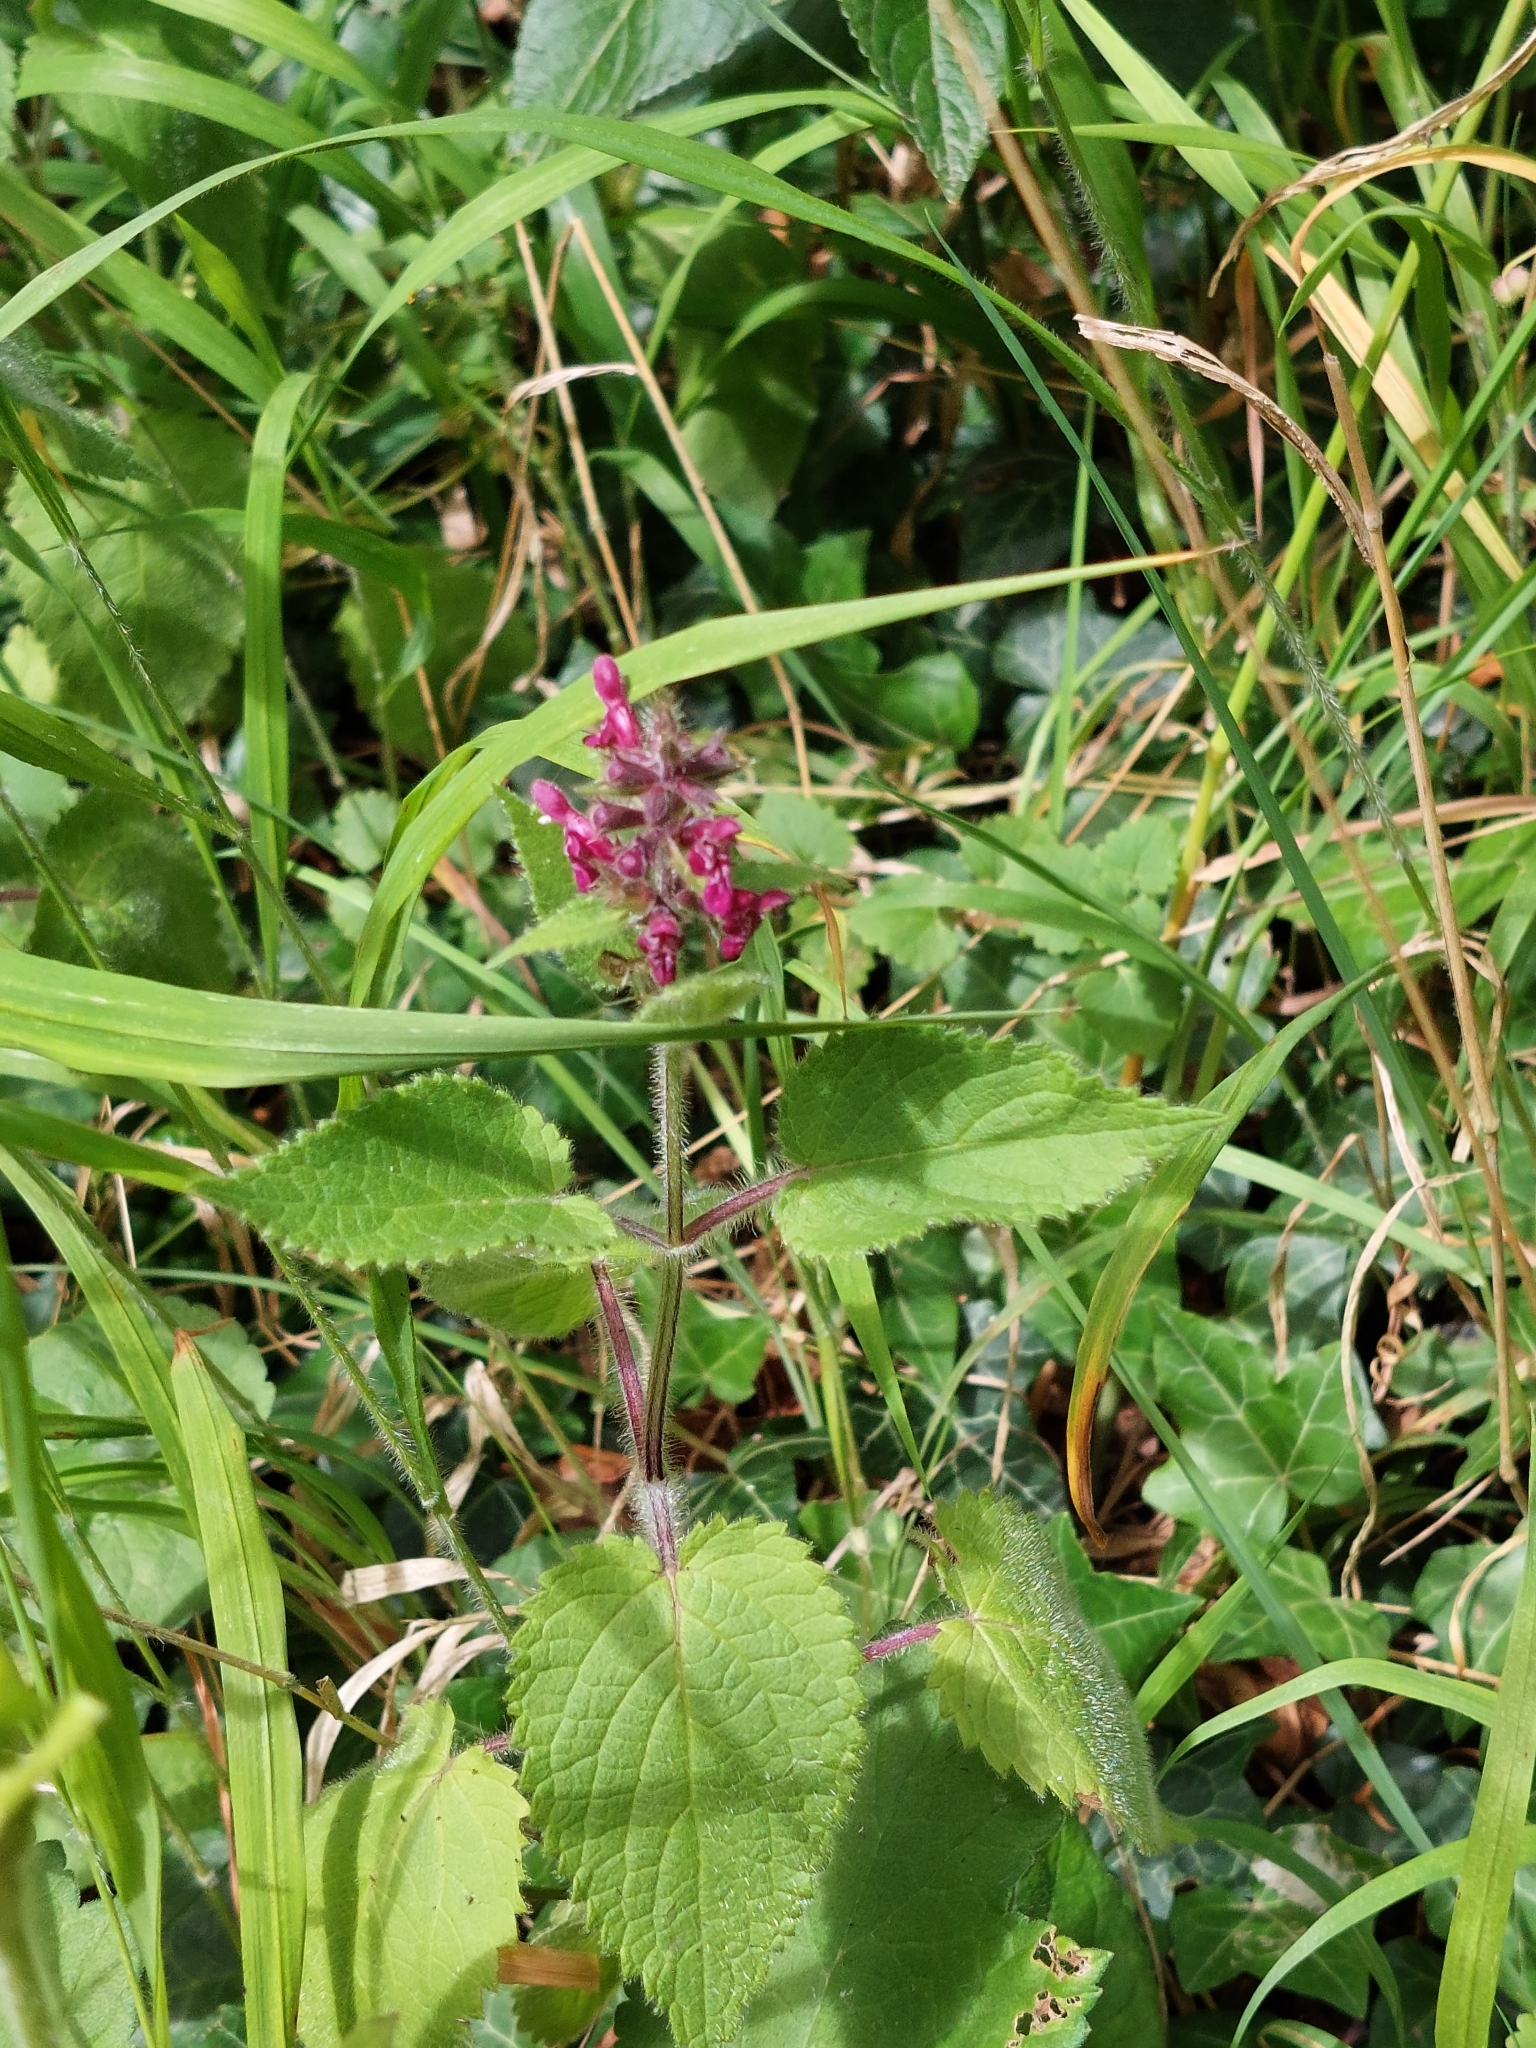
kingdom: Plantae
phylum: Tracheophyta
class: Magnoliopsida
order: Lamiales
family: Lamiaceae
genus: Stachys
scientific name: Stachys sylvatica
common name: Hedge woundwort
